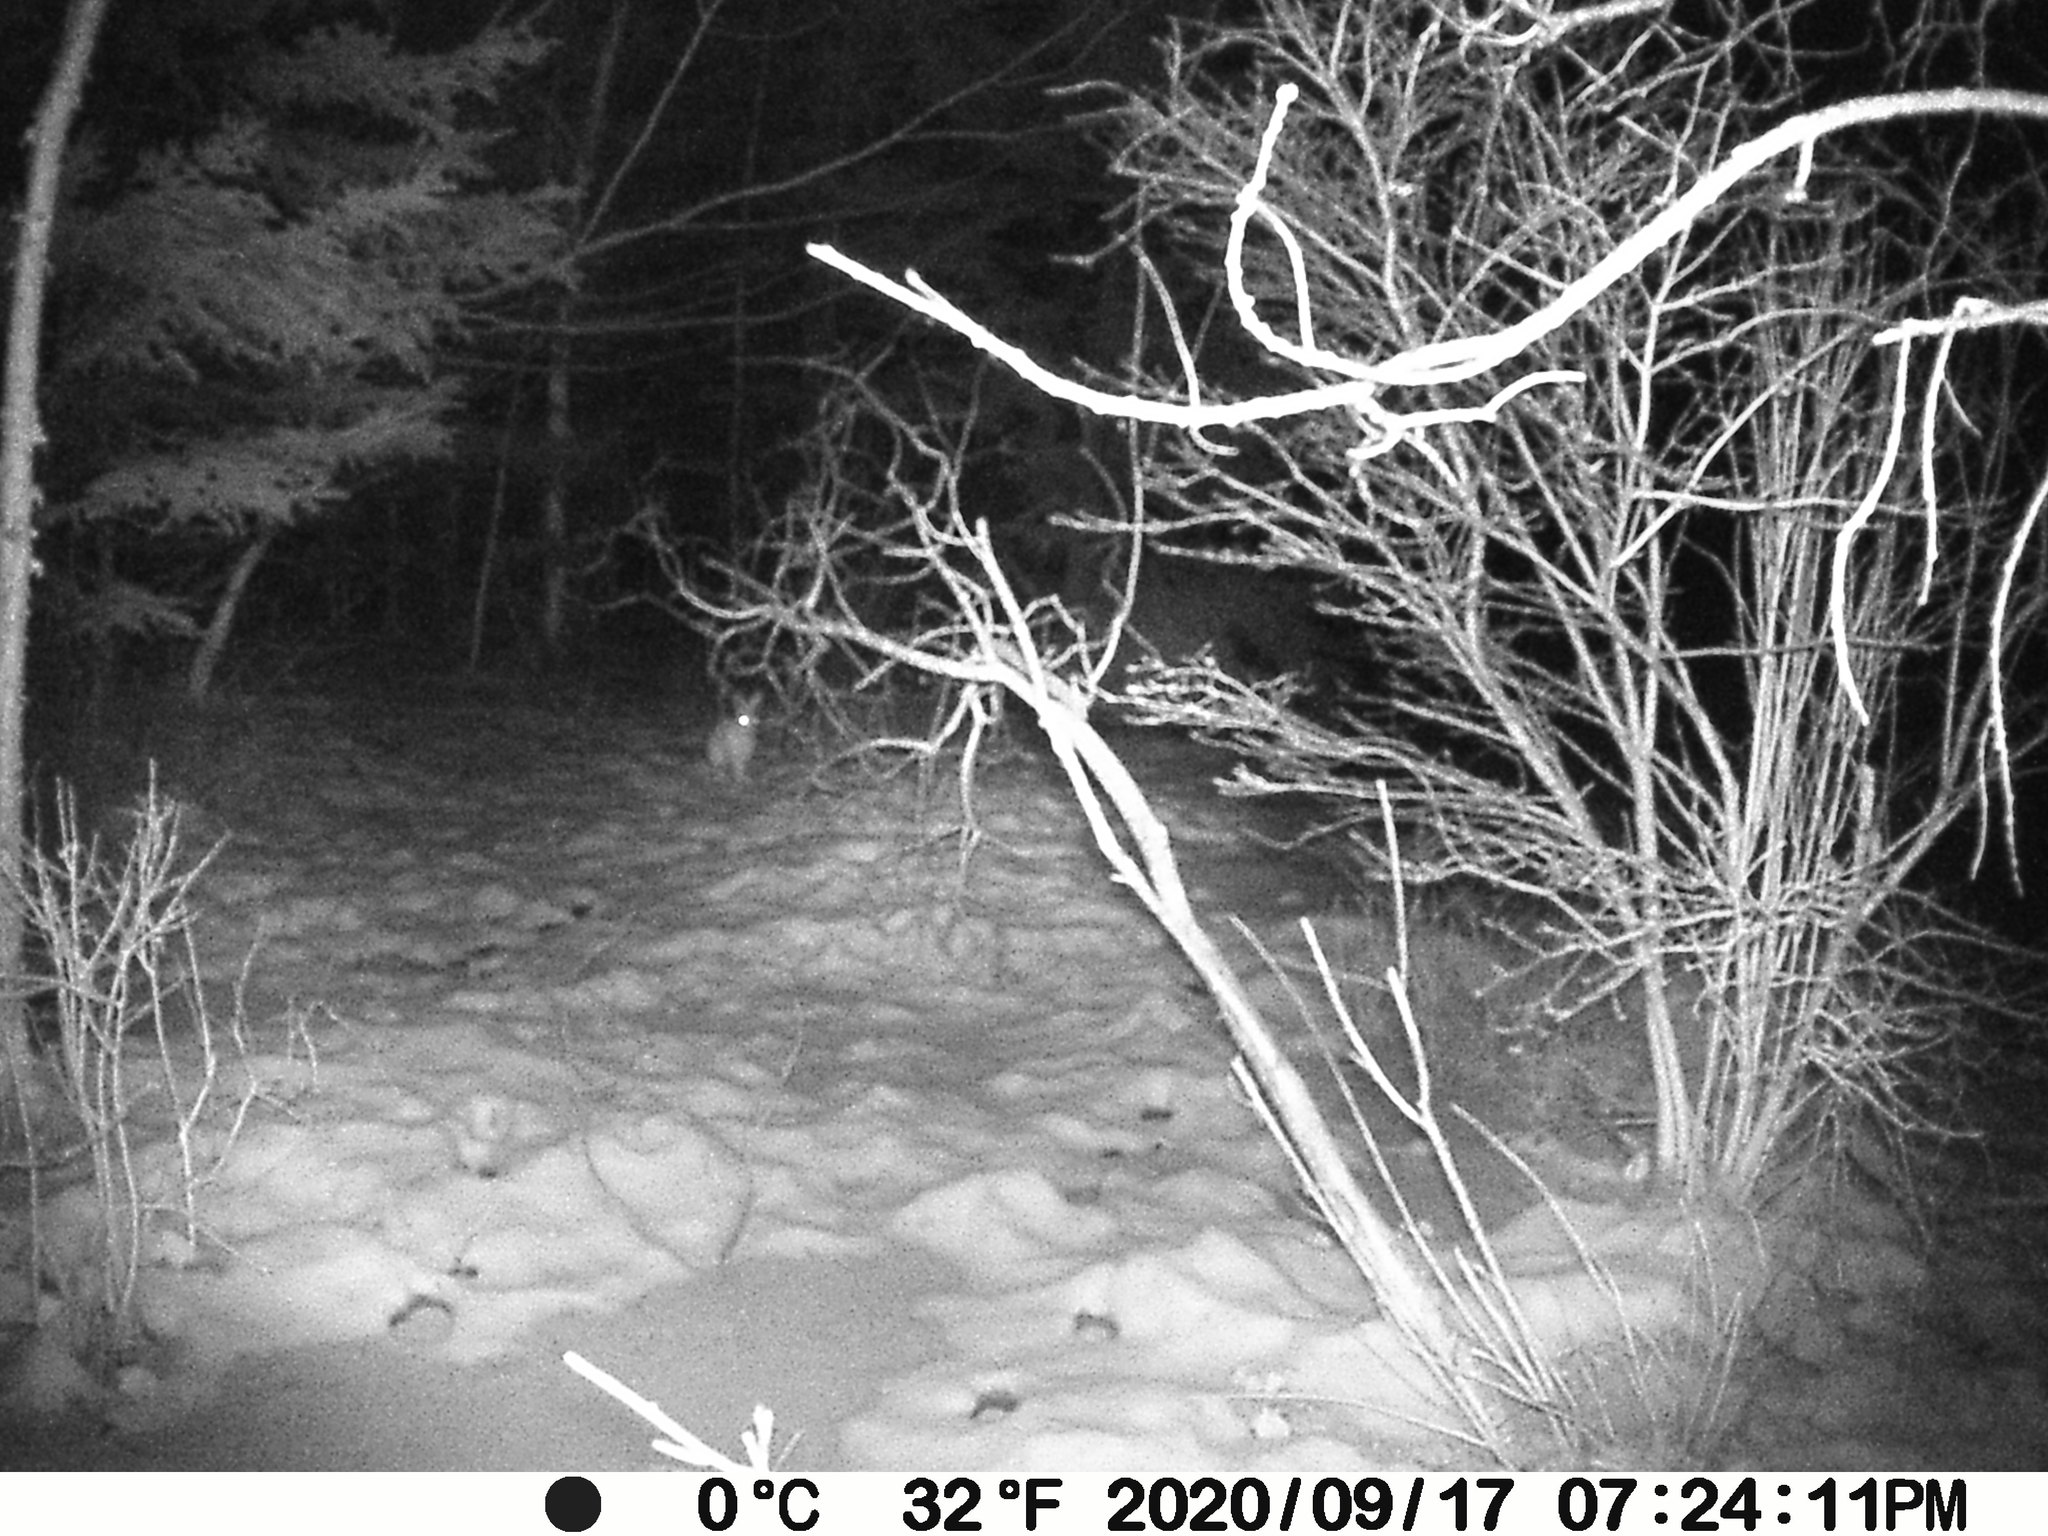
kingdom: Animalia
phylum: Chordata
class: Mammalia
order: Lagomorpha
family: Leporidae
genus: Lepus
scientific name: Lepus americanus
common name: Snowshoe hare
